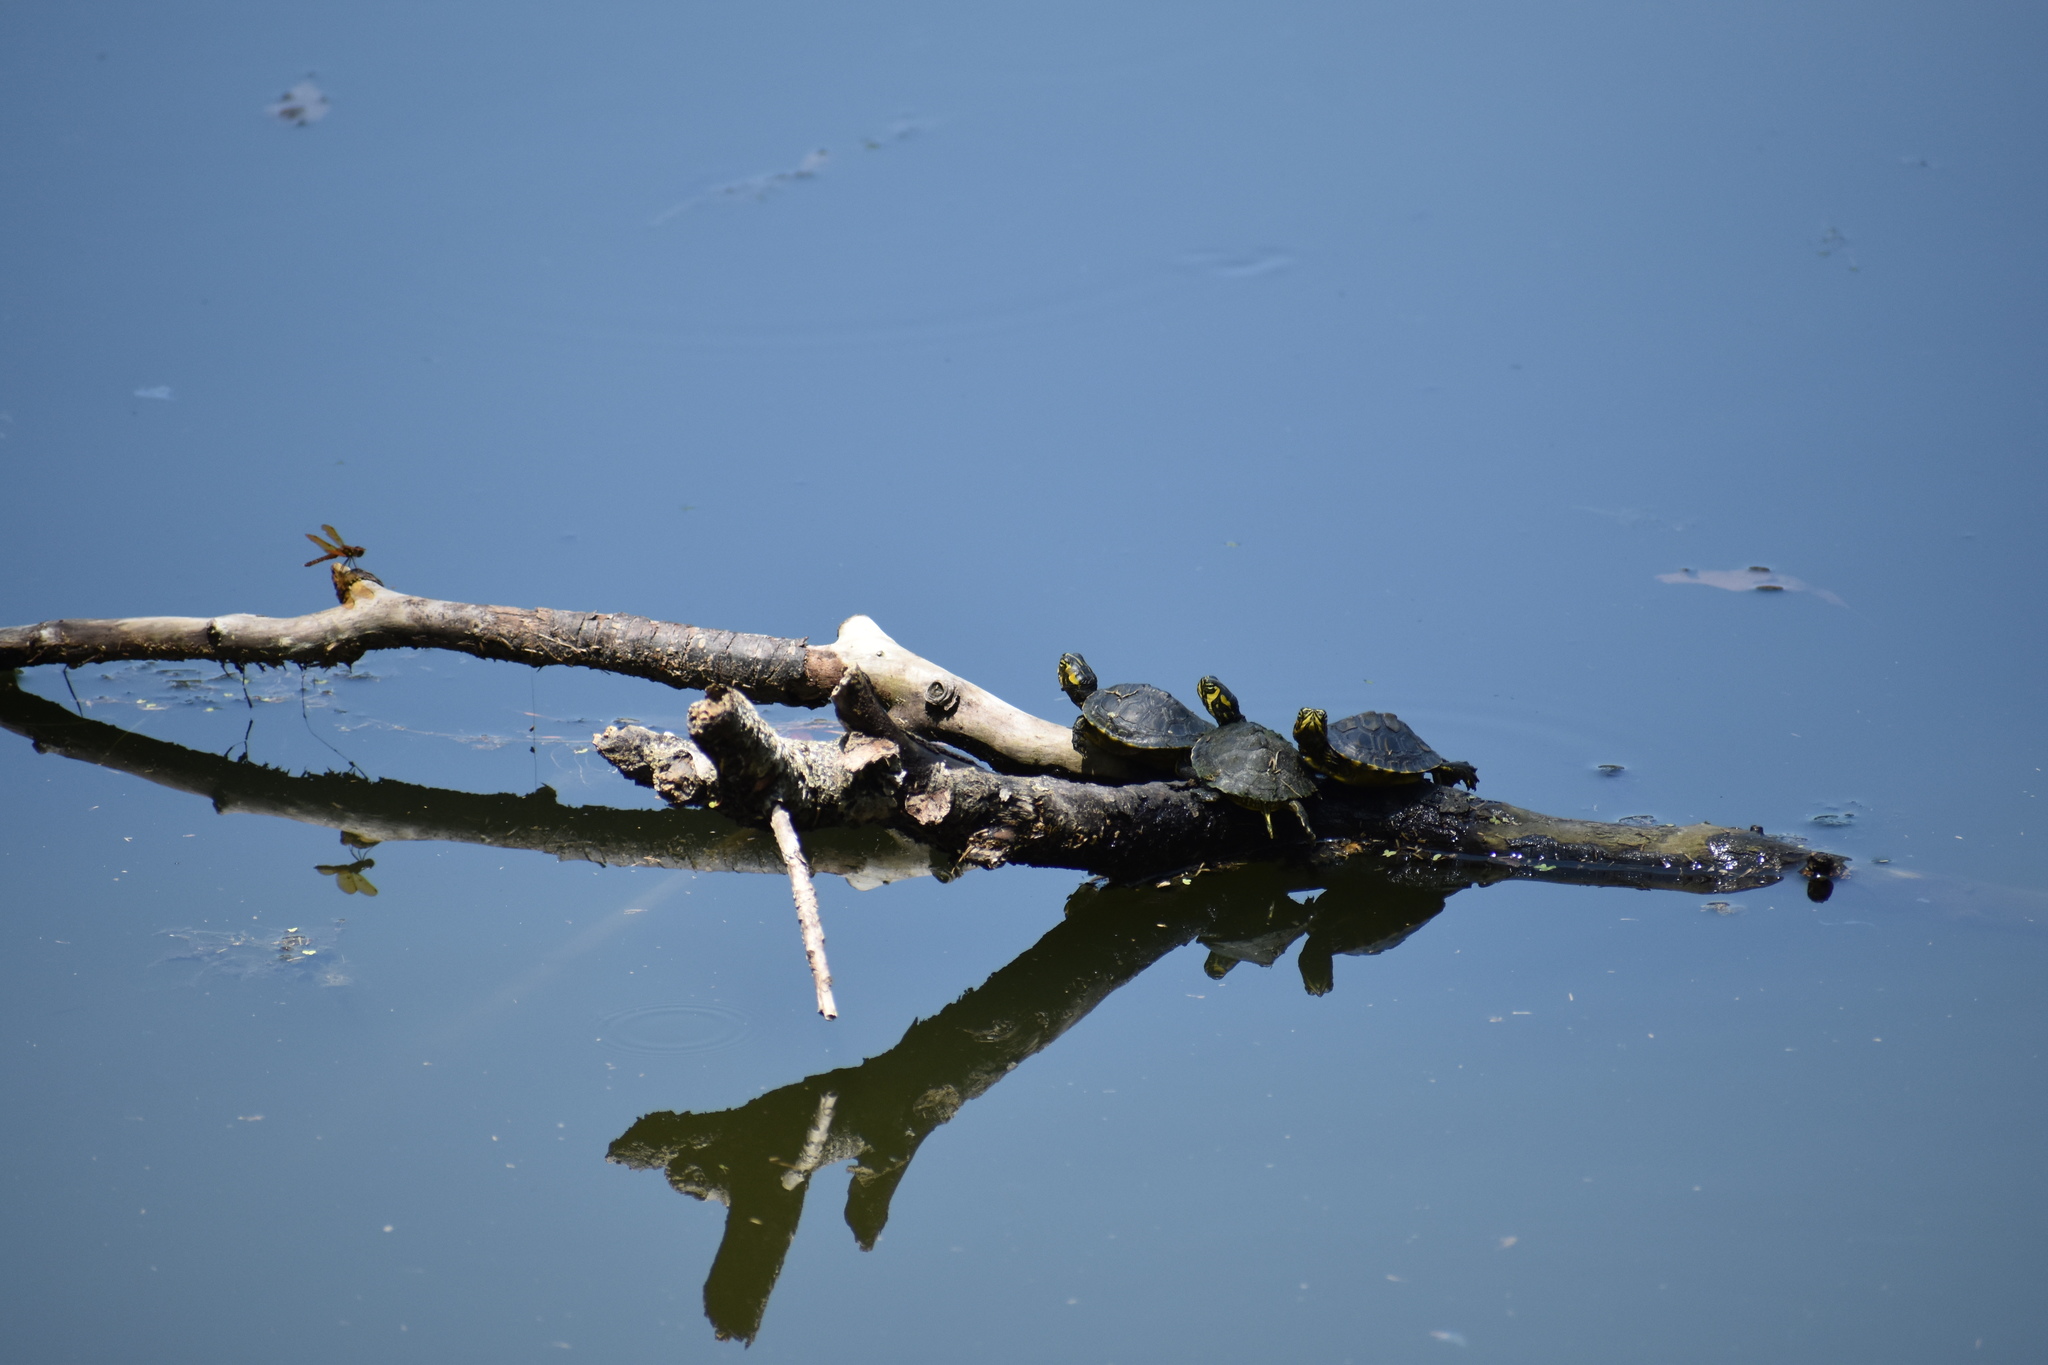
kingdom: Animalia
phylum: Chordata
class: Testudines
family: Emydidae
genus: Trachemys
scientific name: Trachemys scripta
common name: Slider
